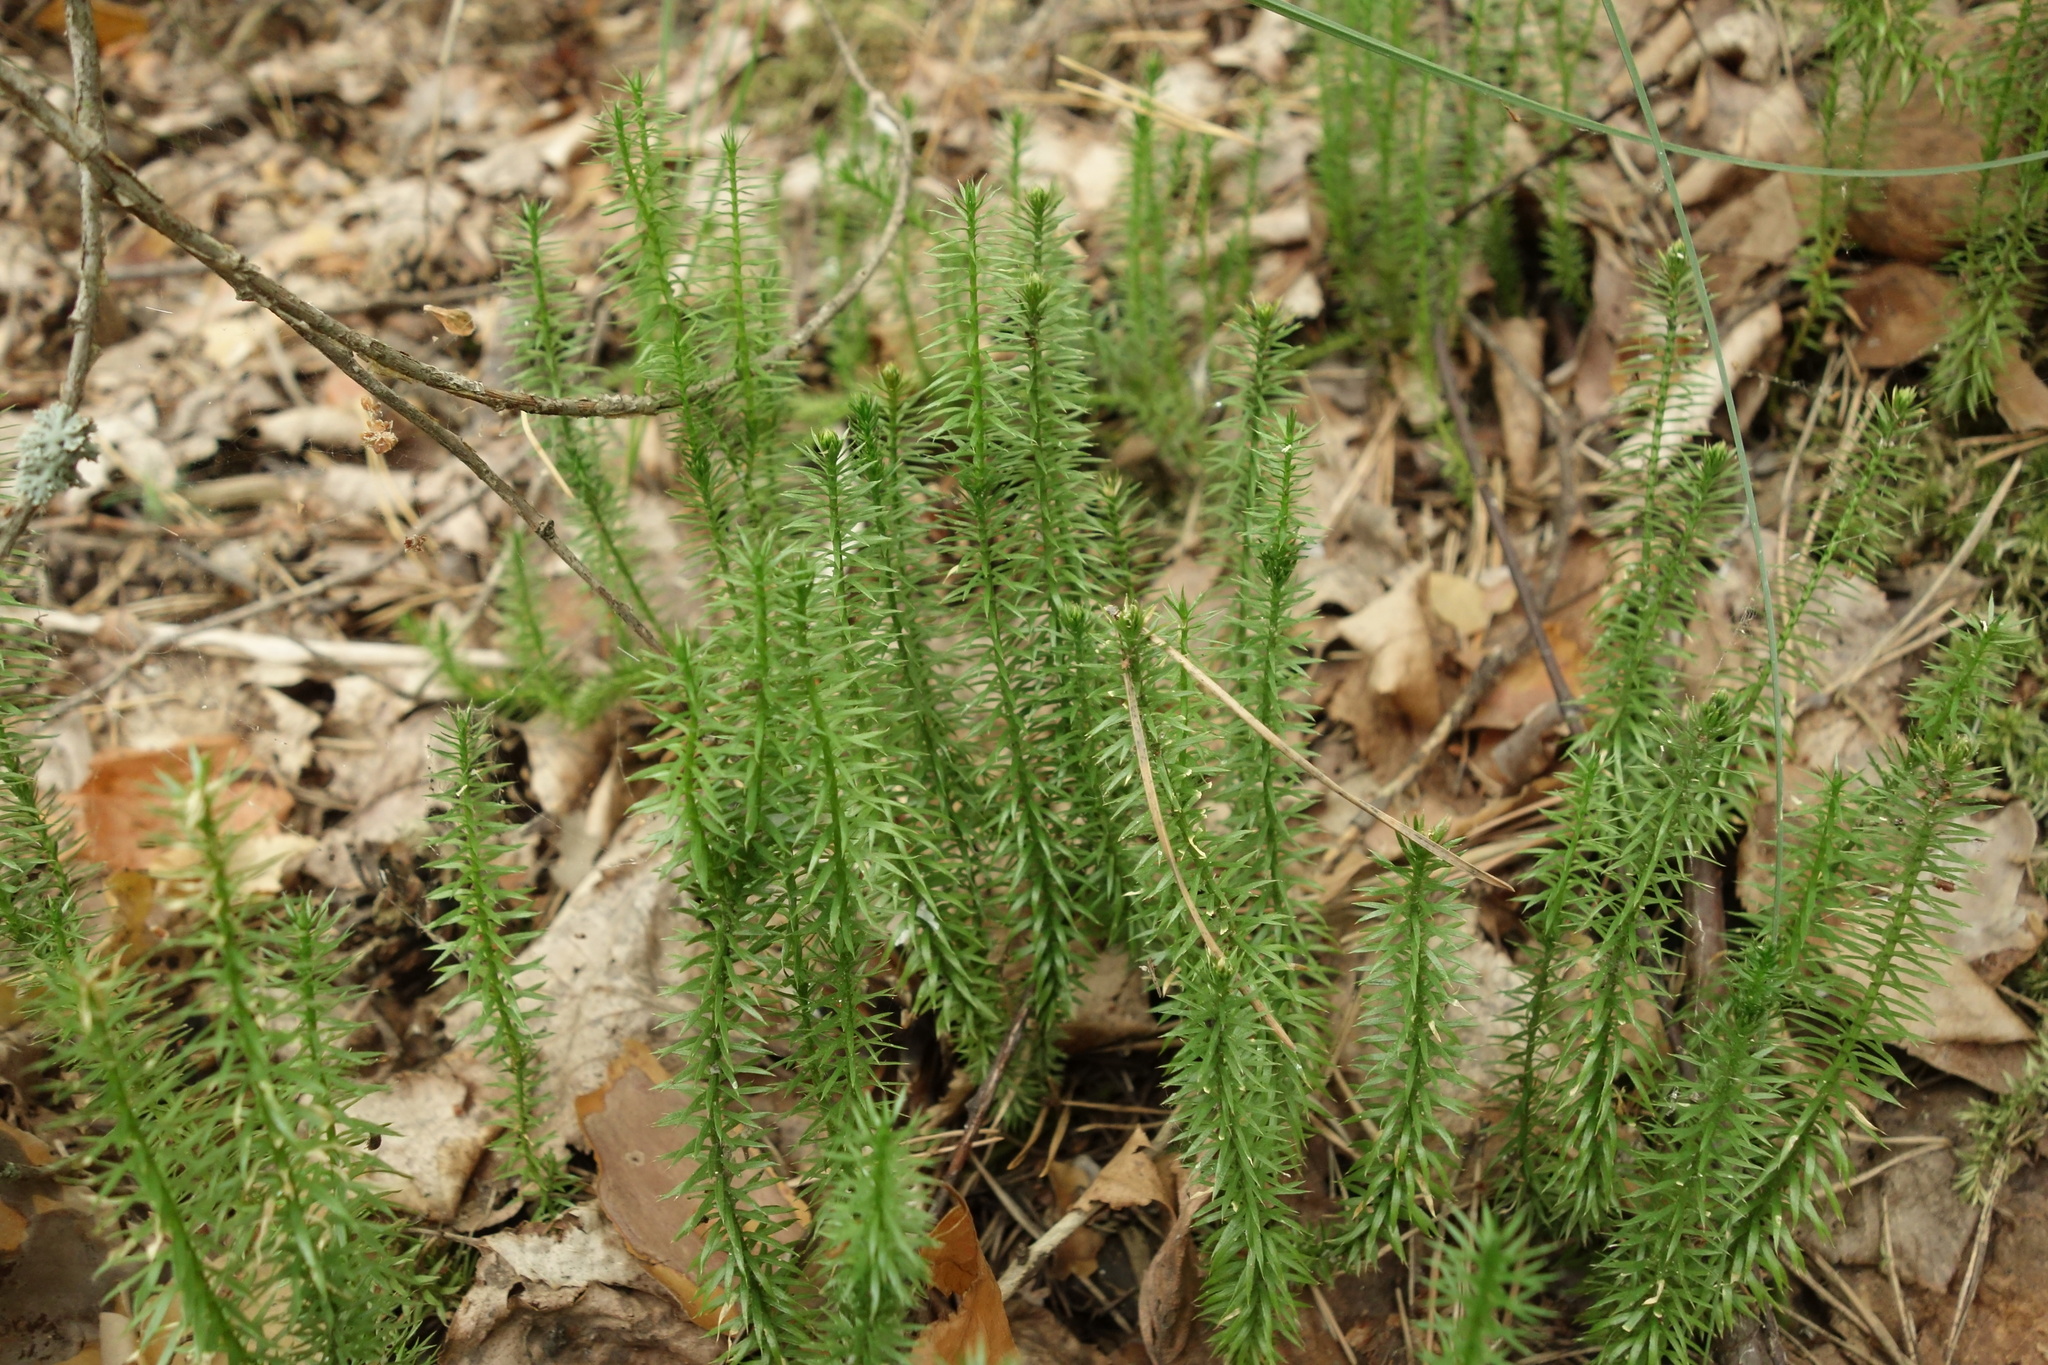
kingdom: Plantae
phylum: Tracheophyta
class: Lycopodiopsida
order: Lycopodiales
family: Lycopodiaceae
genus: Spinulum
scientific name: Spinulum annotinum
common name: Interrupted club-moss
